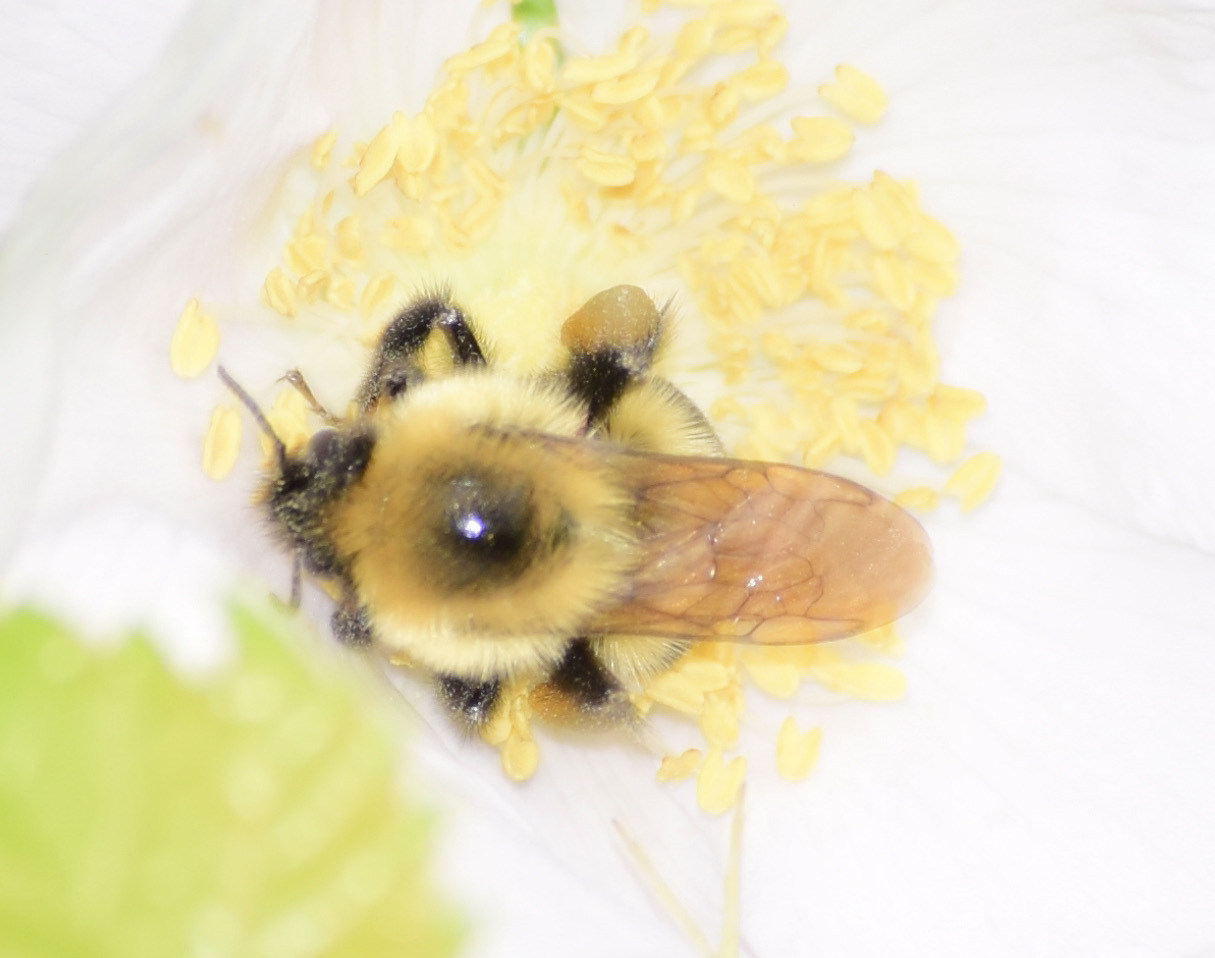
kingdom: Animalia
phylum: Arthropoda
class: Insecta
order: Hymenoptera
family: Apidae
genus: Bombus
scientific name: Bombus bimaculatus
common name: Two-spotted bumble bee
